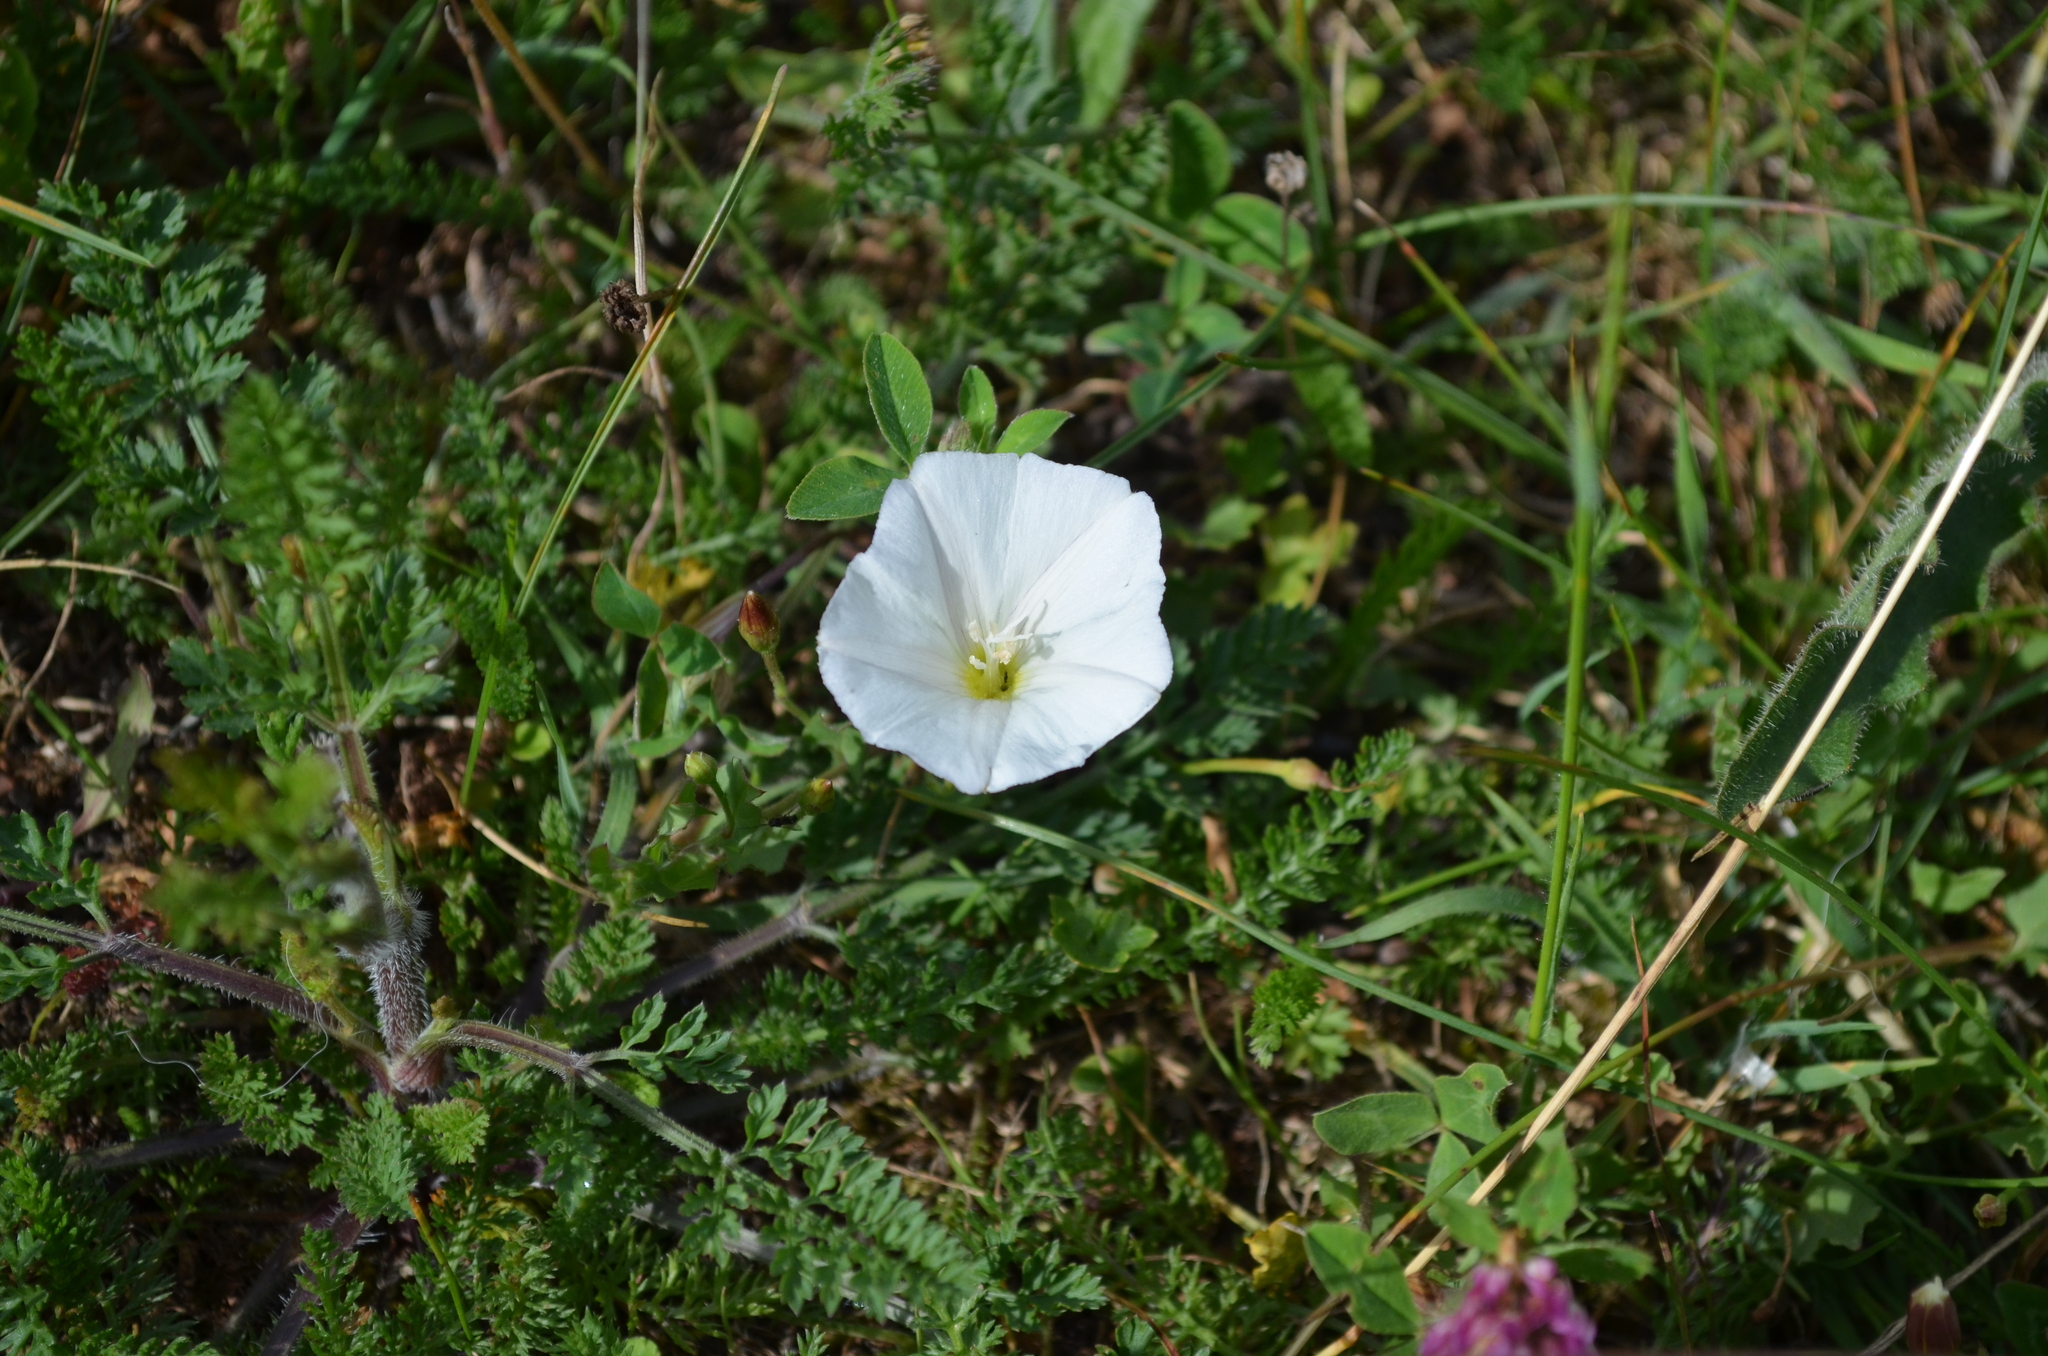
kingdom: Plantae
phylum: Tracheophyta
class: Magnoliopsida
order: Solanales
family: Convolvulaceae
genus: Convolvulus
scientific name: Convolvulus arvensis
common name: Field bindweed
